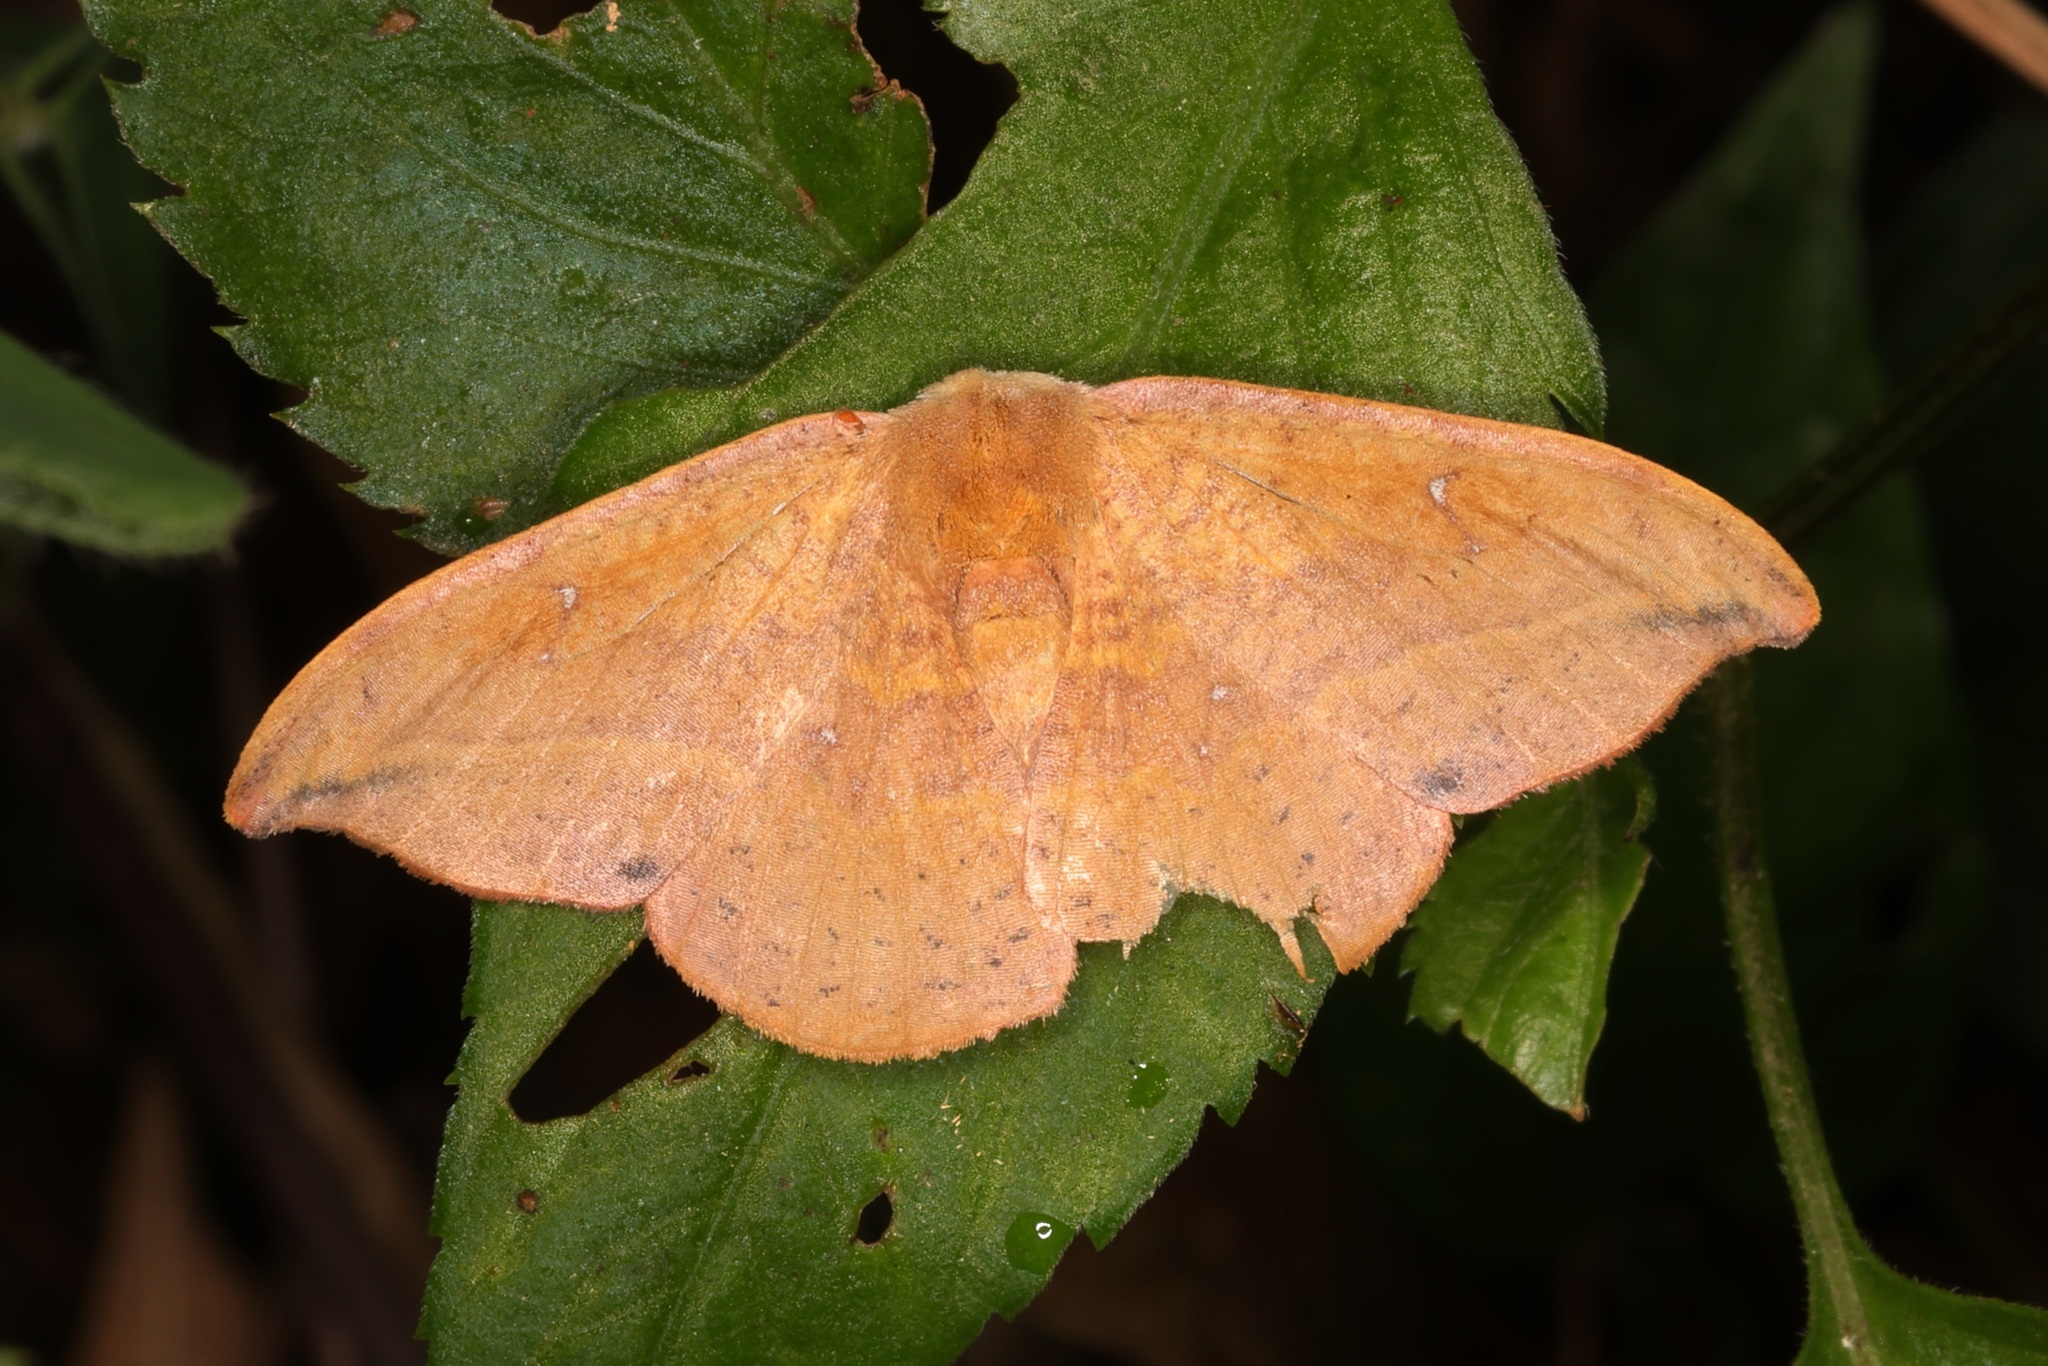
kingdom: Animalia
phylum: Arthropoda
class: Insecta
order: Lepidoptera
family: Drepanidae
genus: Oreta
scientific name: Oreta
